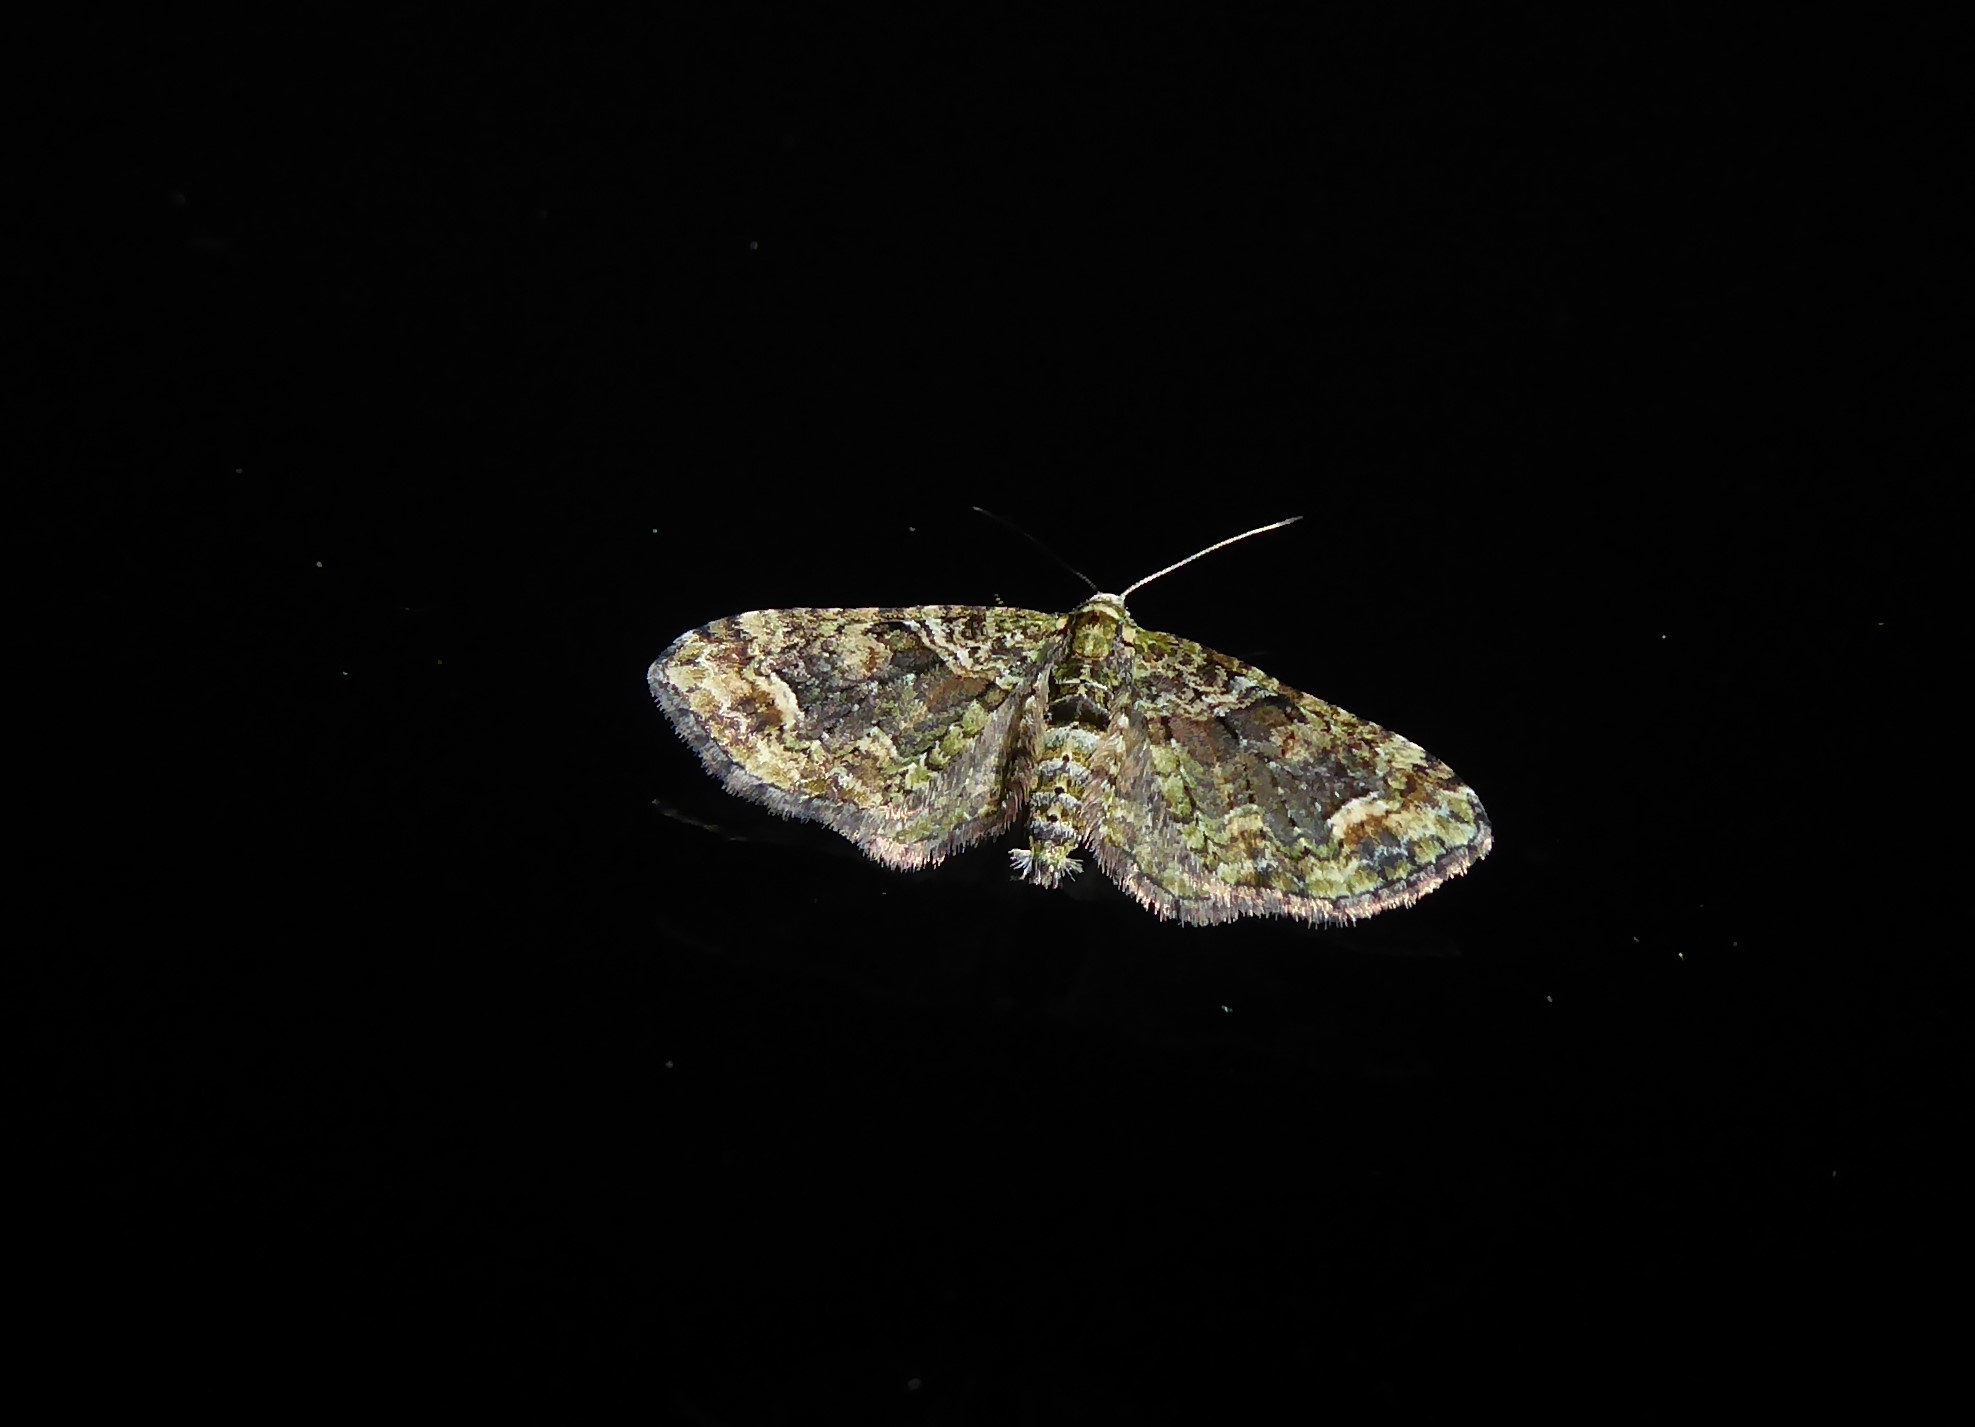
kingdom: Animalia
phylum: Arthropoda
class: Insecta
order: Lepidoptera
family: Geometridae
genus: Idaea
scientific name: Idaea mutanda
